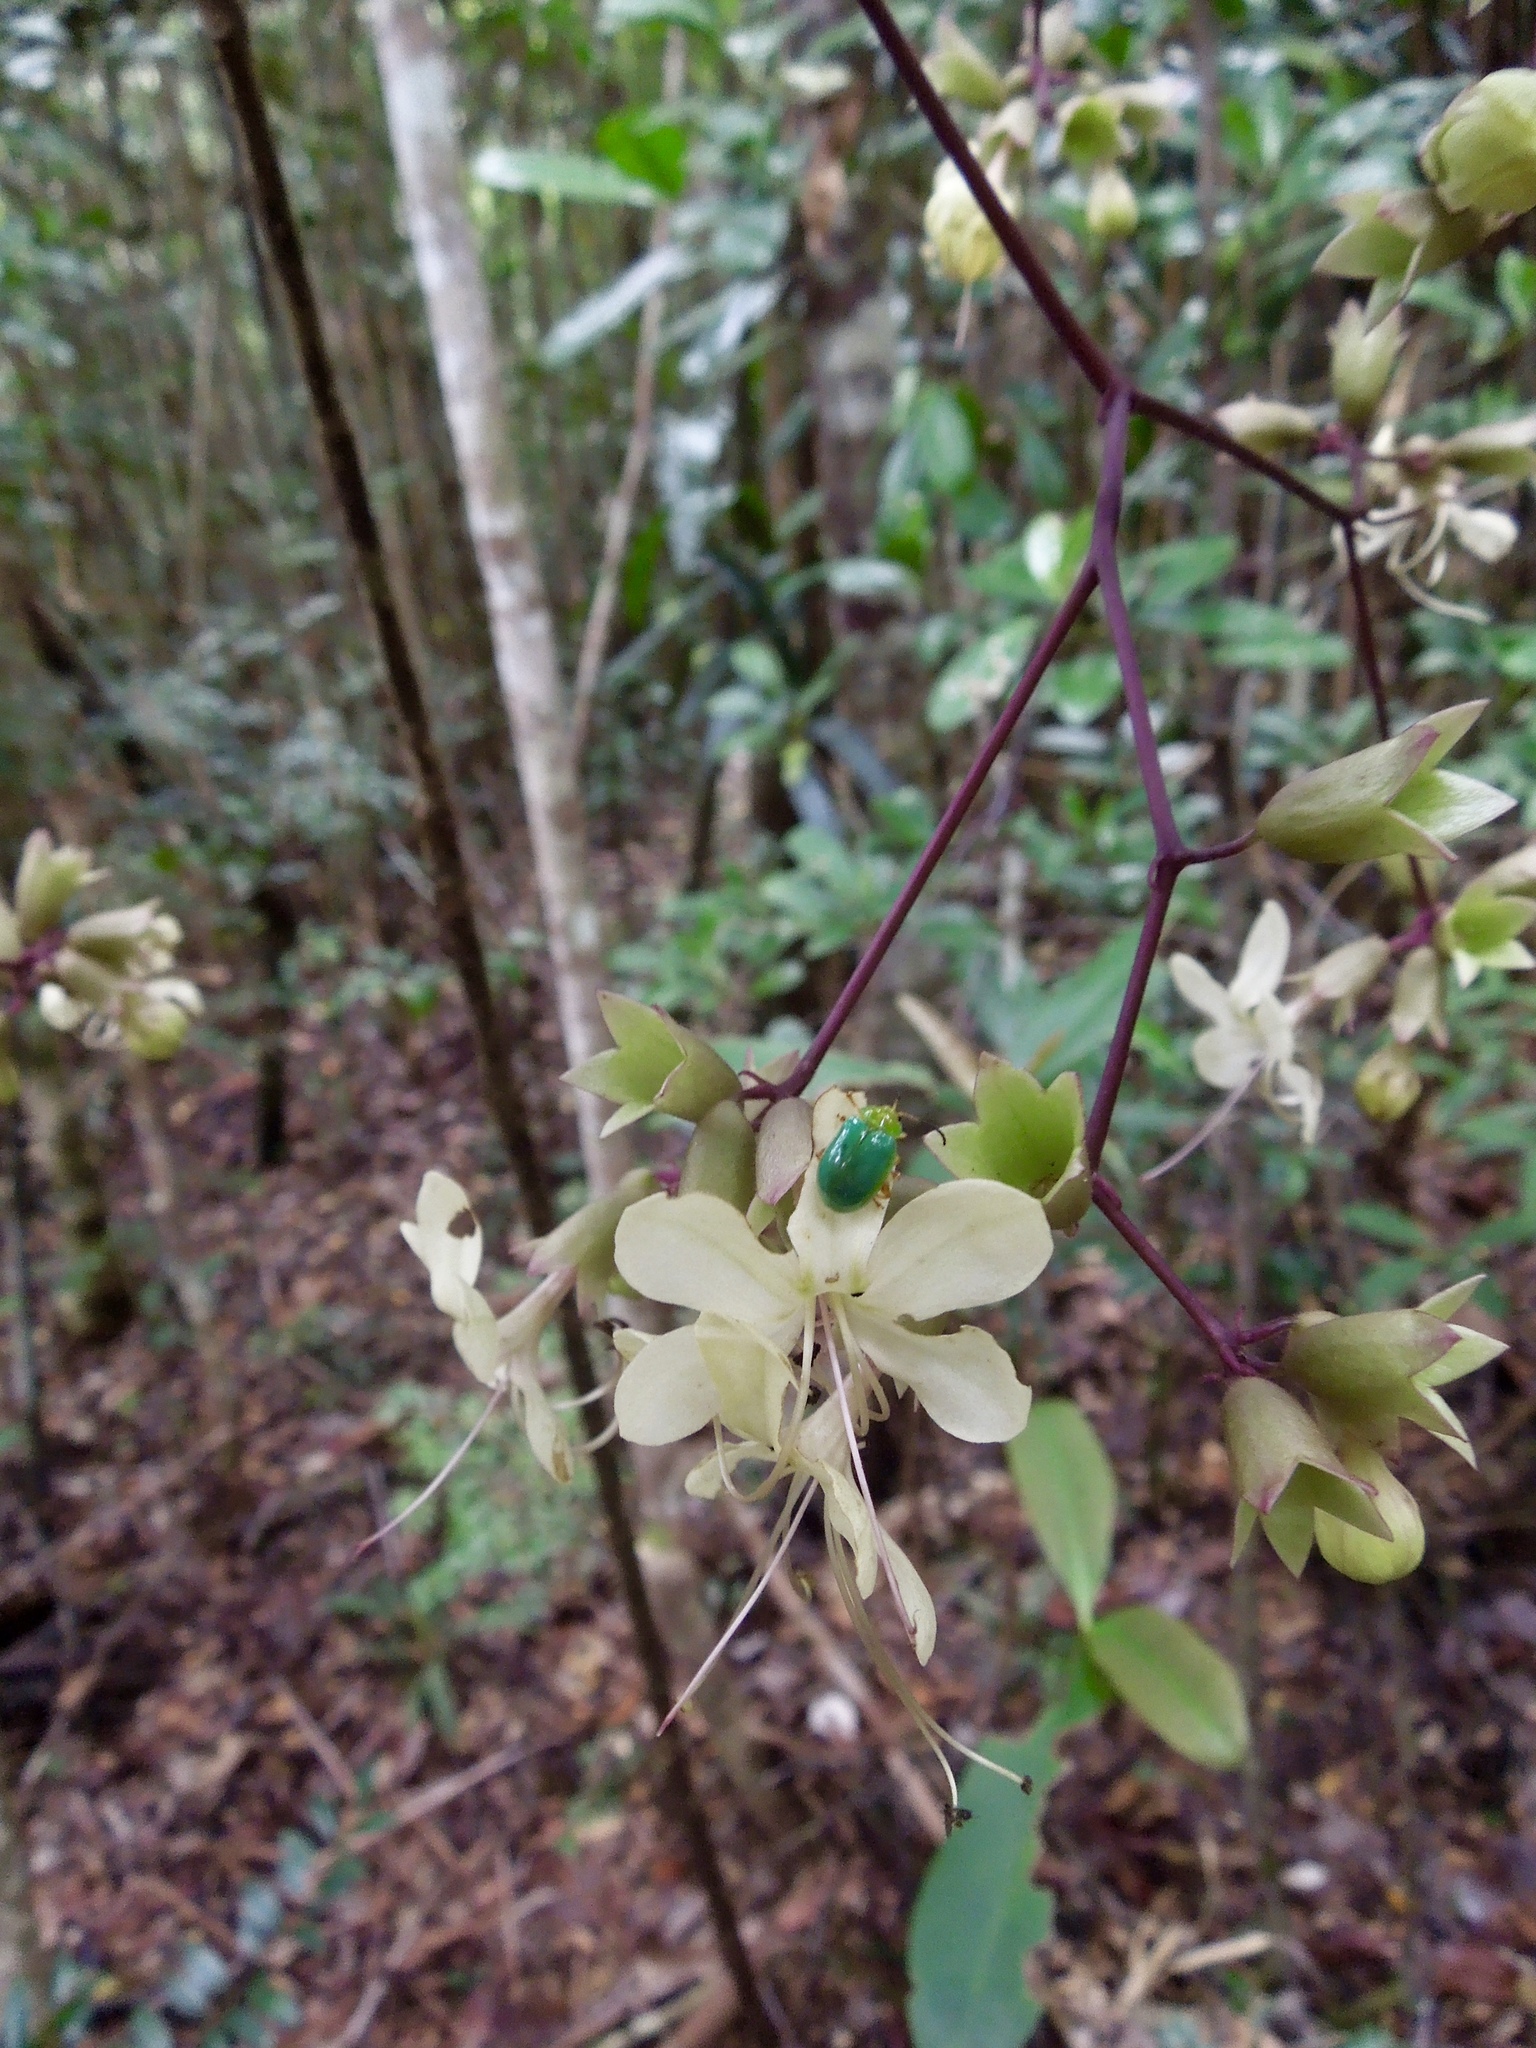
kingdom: Plantae
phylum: Tracheophyta
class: Magnoliopsida
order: Lamiales
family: Lamiaceae
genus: Clerodendrum
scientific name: Clerodendrum bosseri
